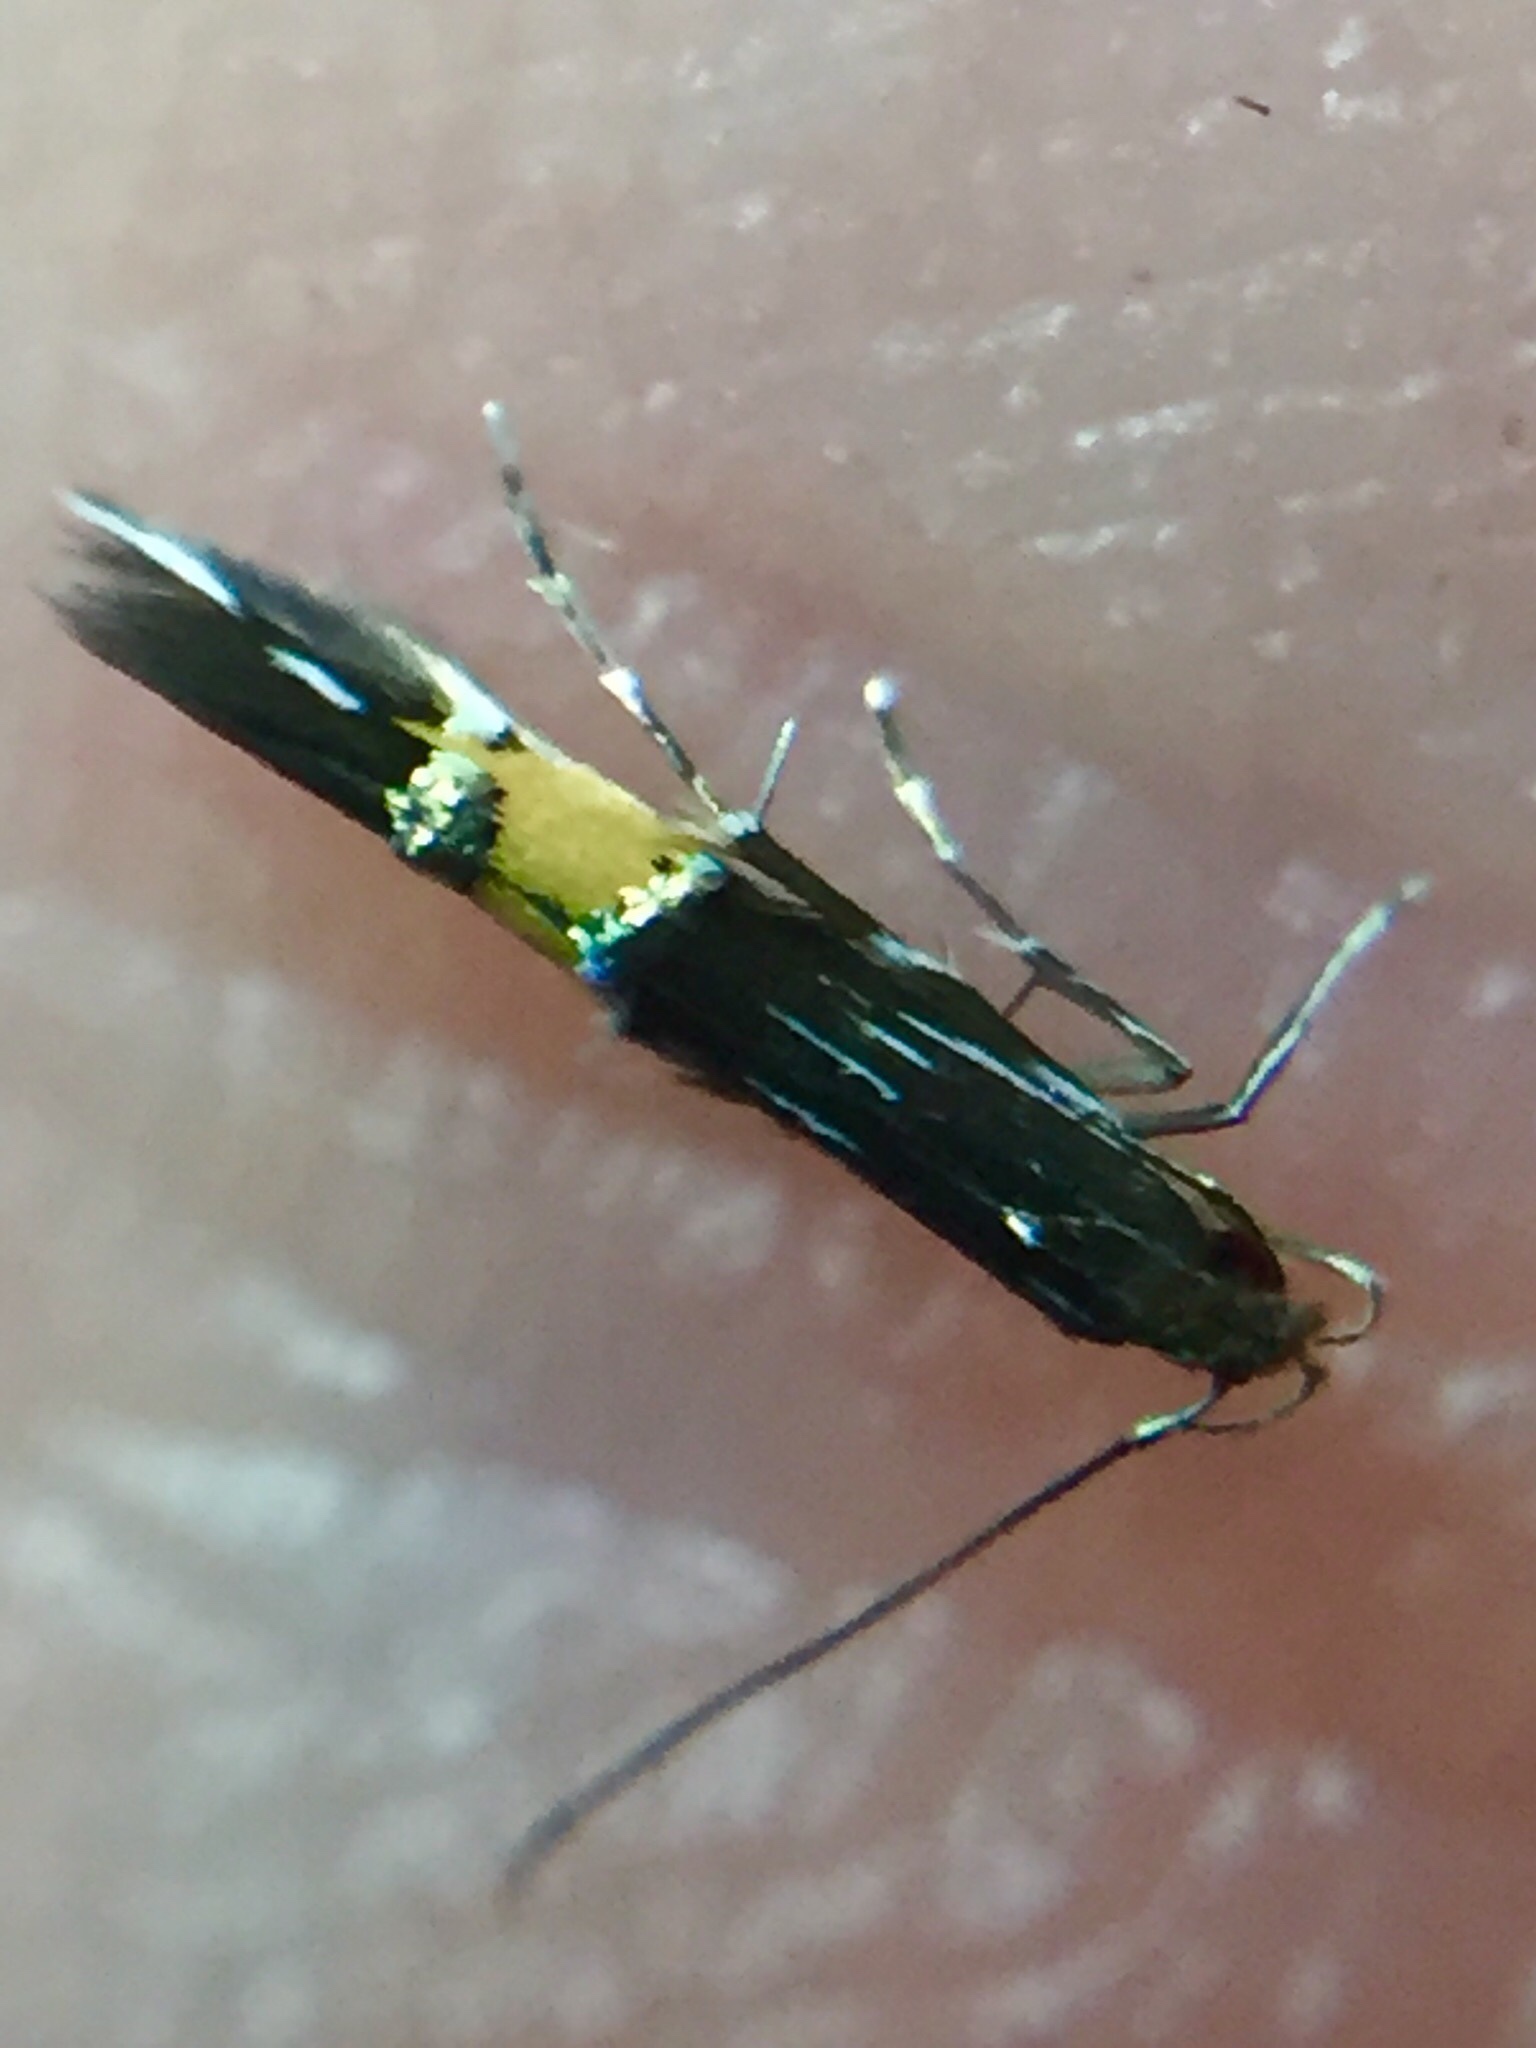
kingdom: Animalia
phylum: Arthropoda
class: Insecta
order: Lepidoptera
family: Cosmopterigidae
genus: Cosmopterix
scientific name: Cosmopterix attenuatella
